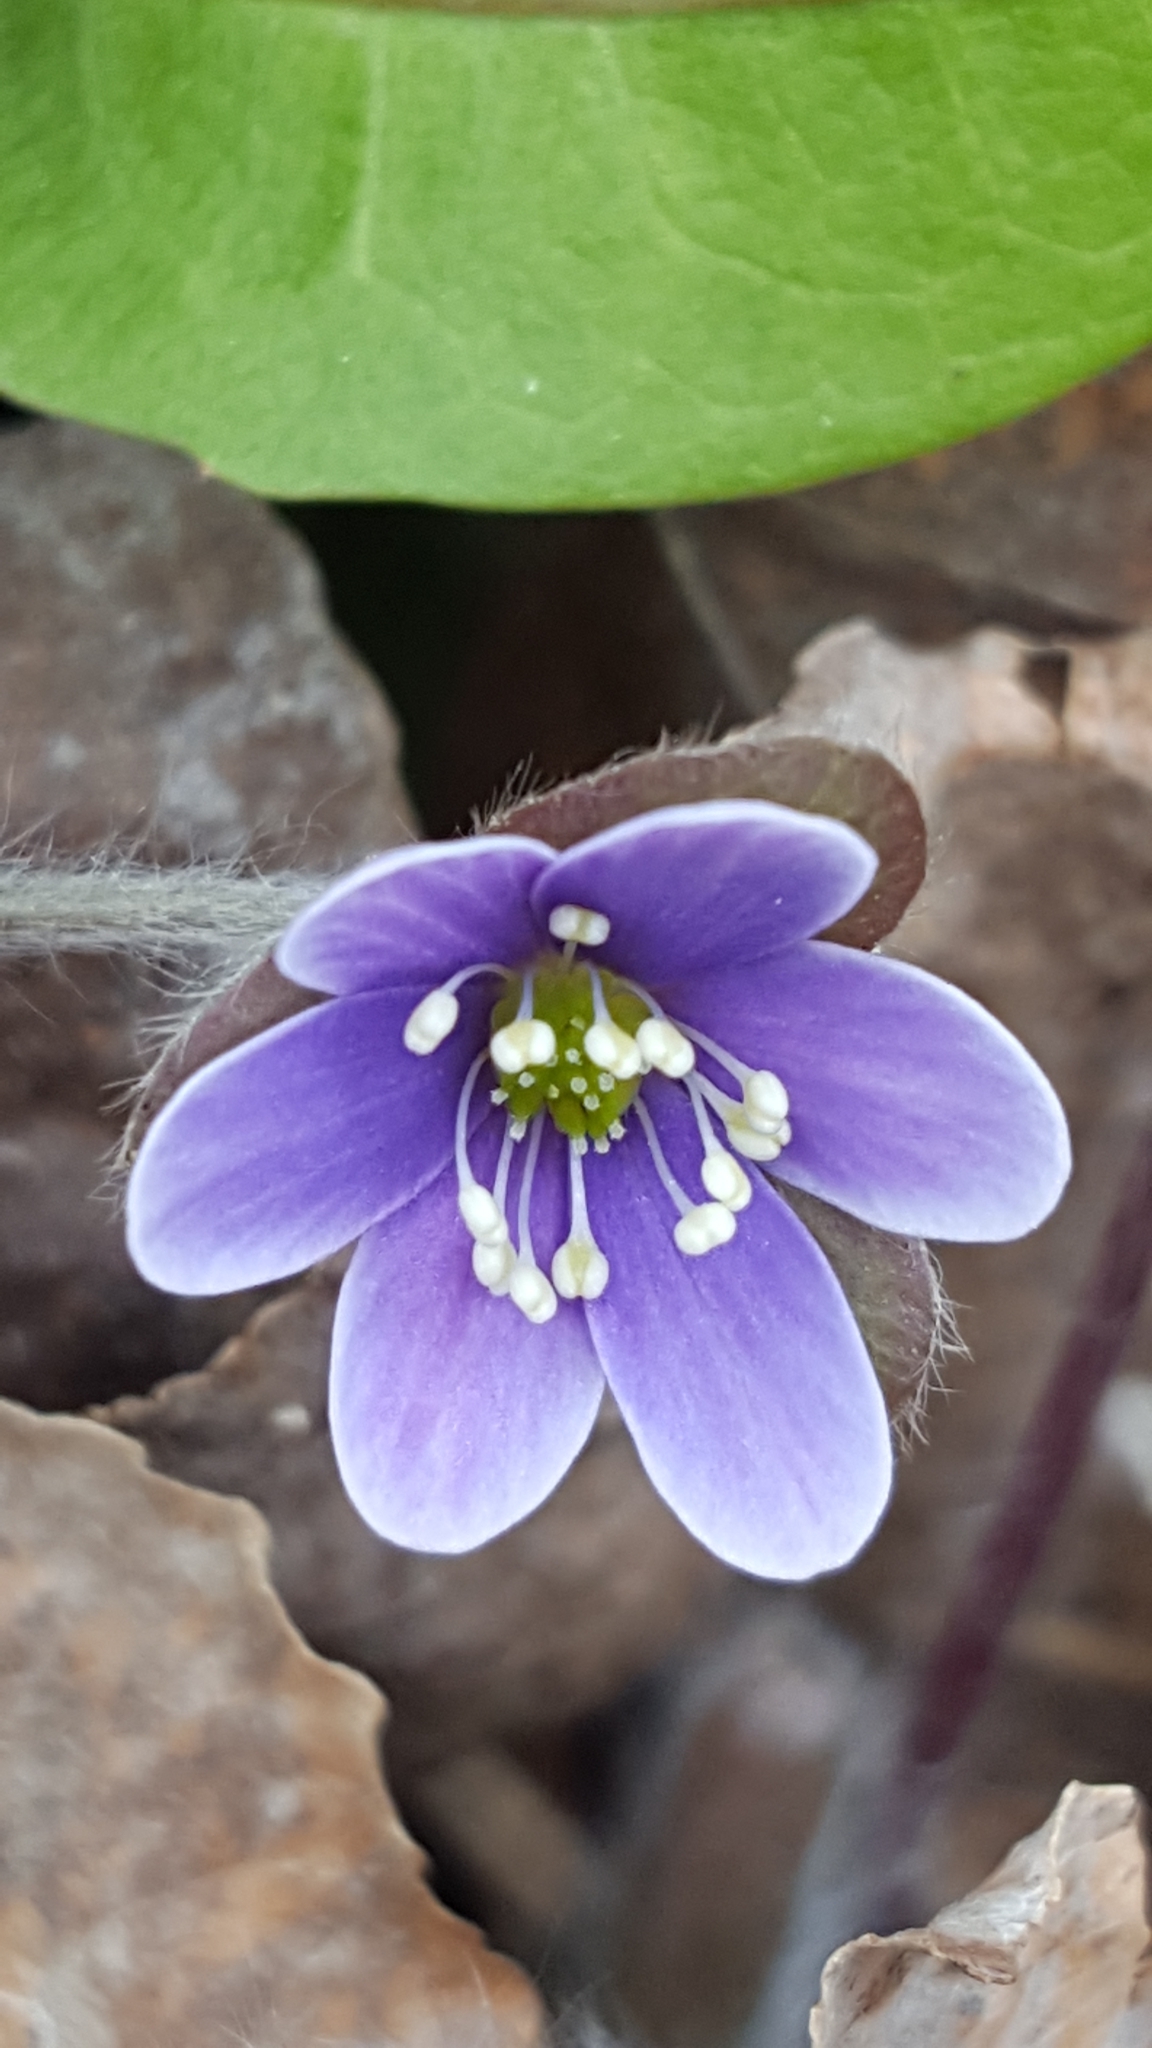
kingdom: Plantae
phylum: Tracheophyta
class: Magnoliopsida
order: Ranunculales
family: Ranunculaceae
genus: Hepatica
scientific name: Hepatica americana
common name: American hepatica
